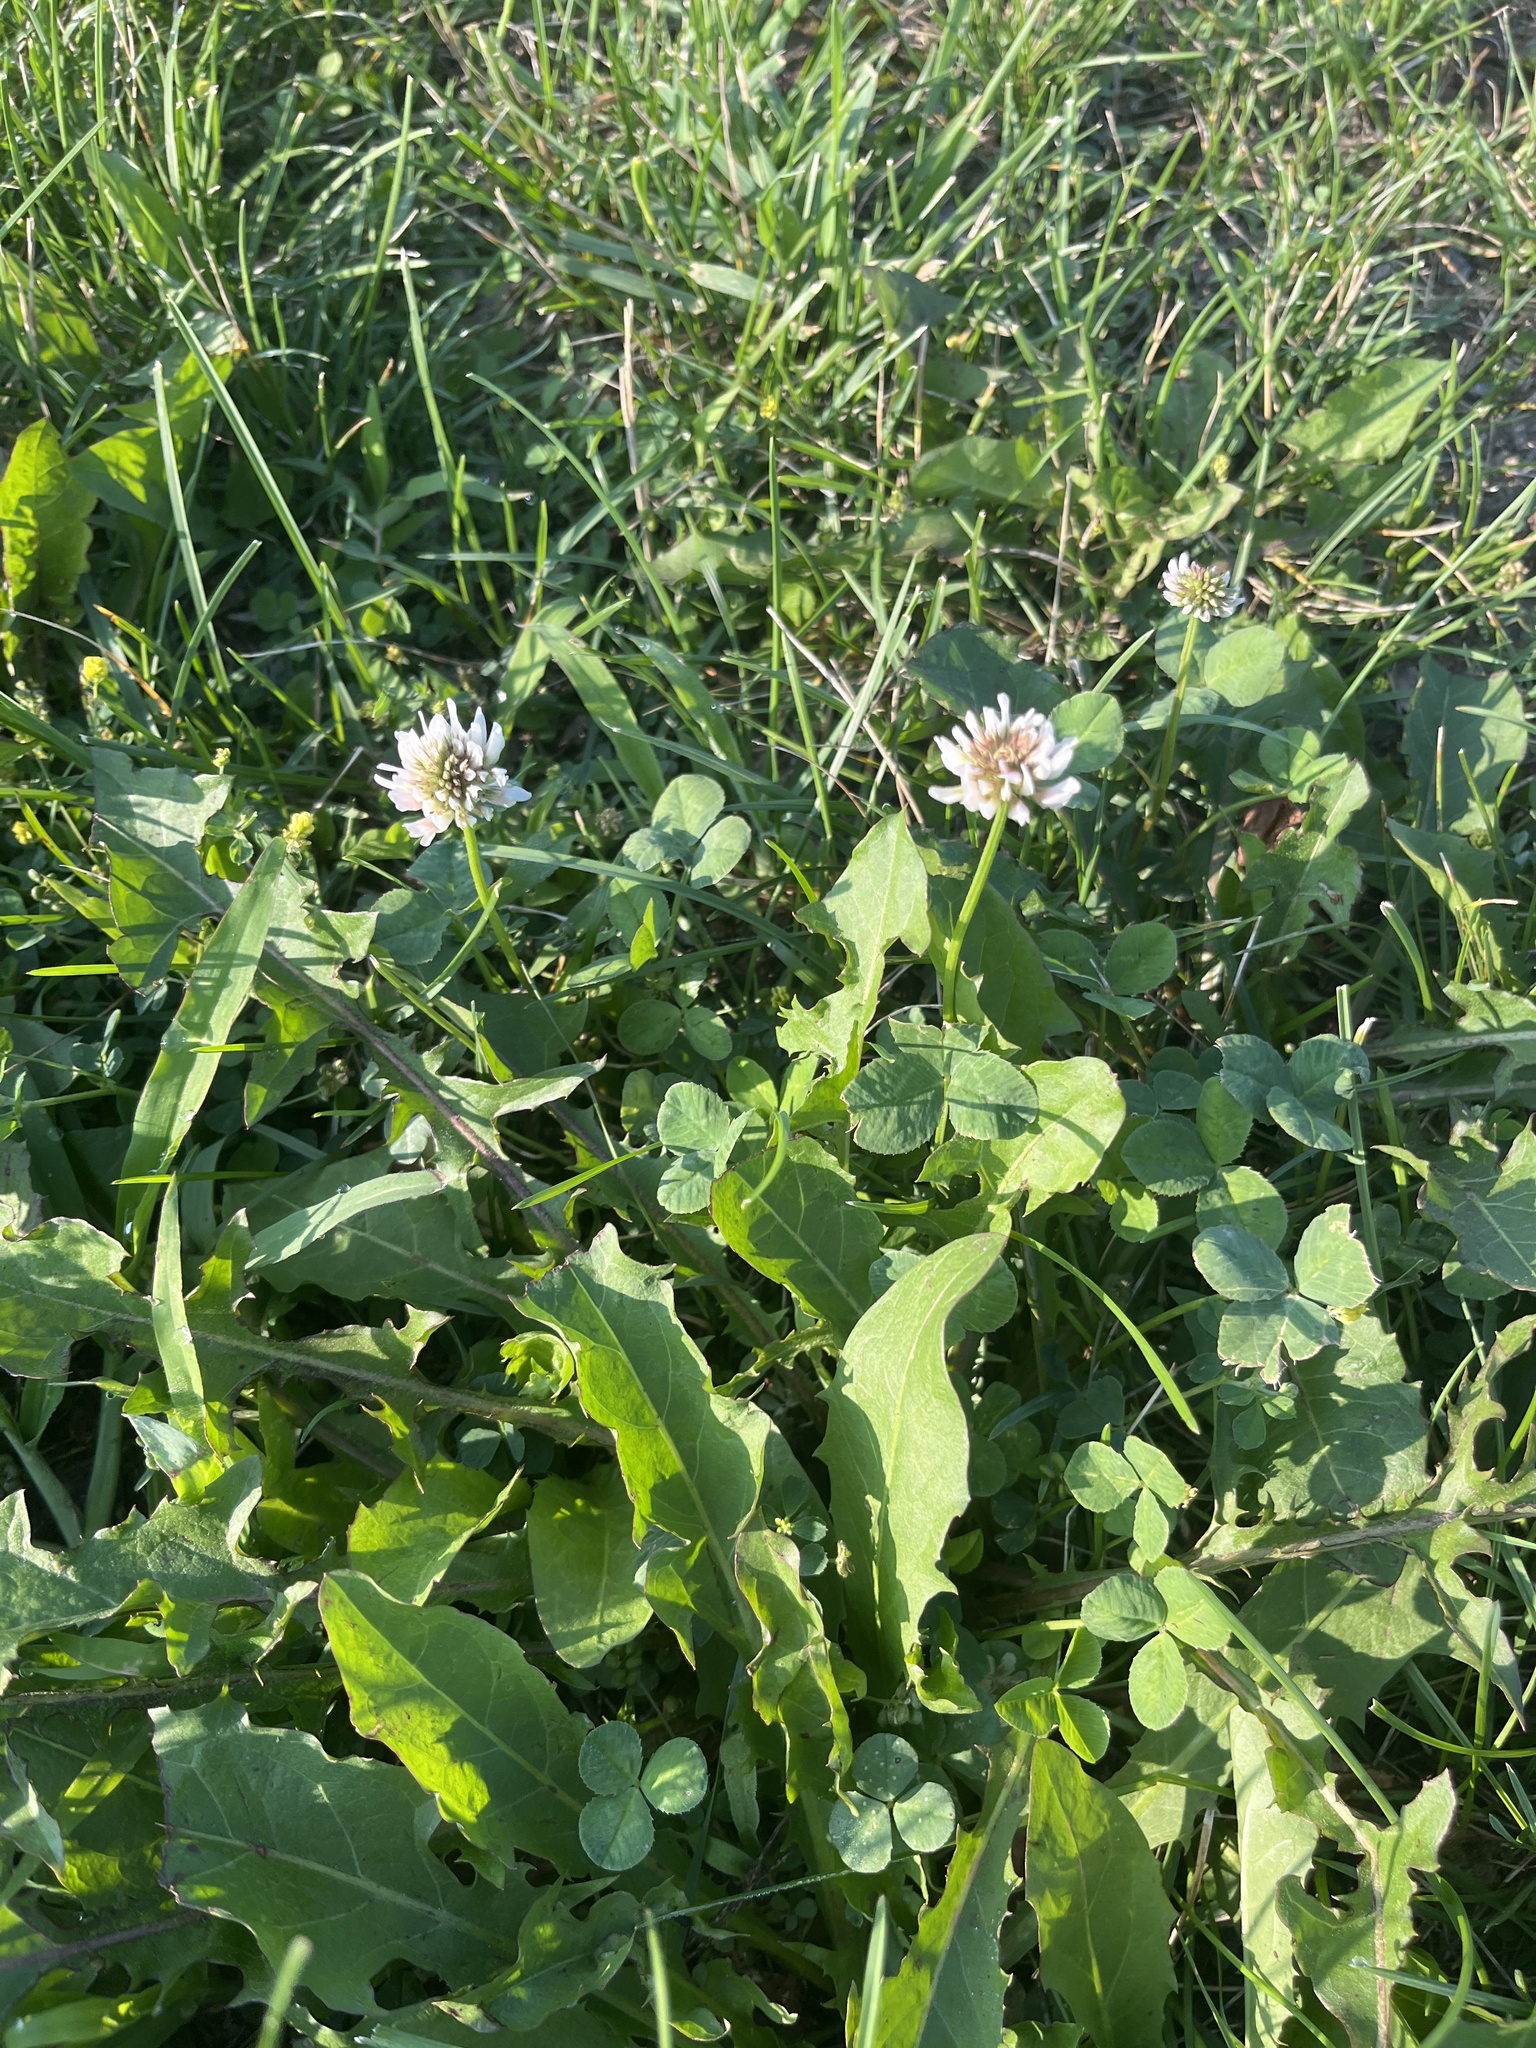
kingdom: Plantae
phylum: Tracheophyta
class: Magnoliopsida
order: Fabales
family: Fabaceae
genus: Trifolium
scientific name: Trifolium repens
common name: White clover
